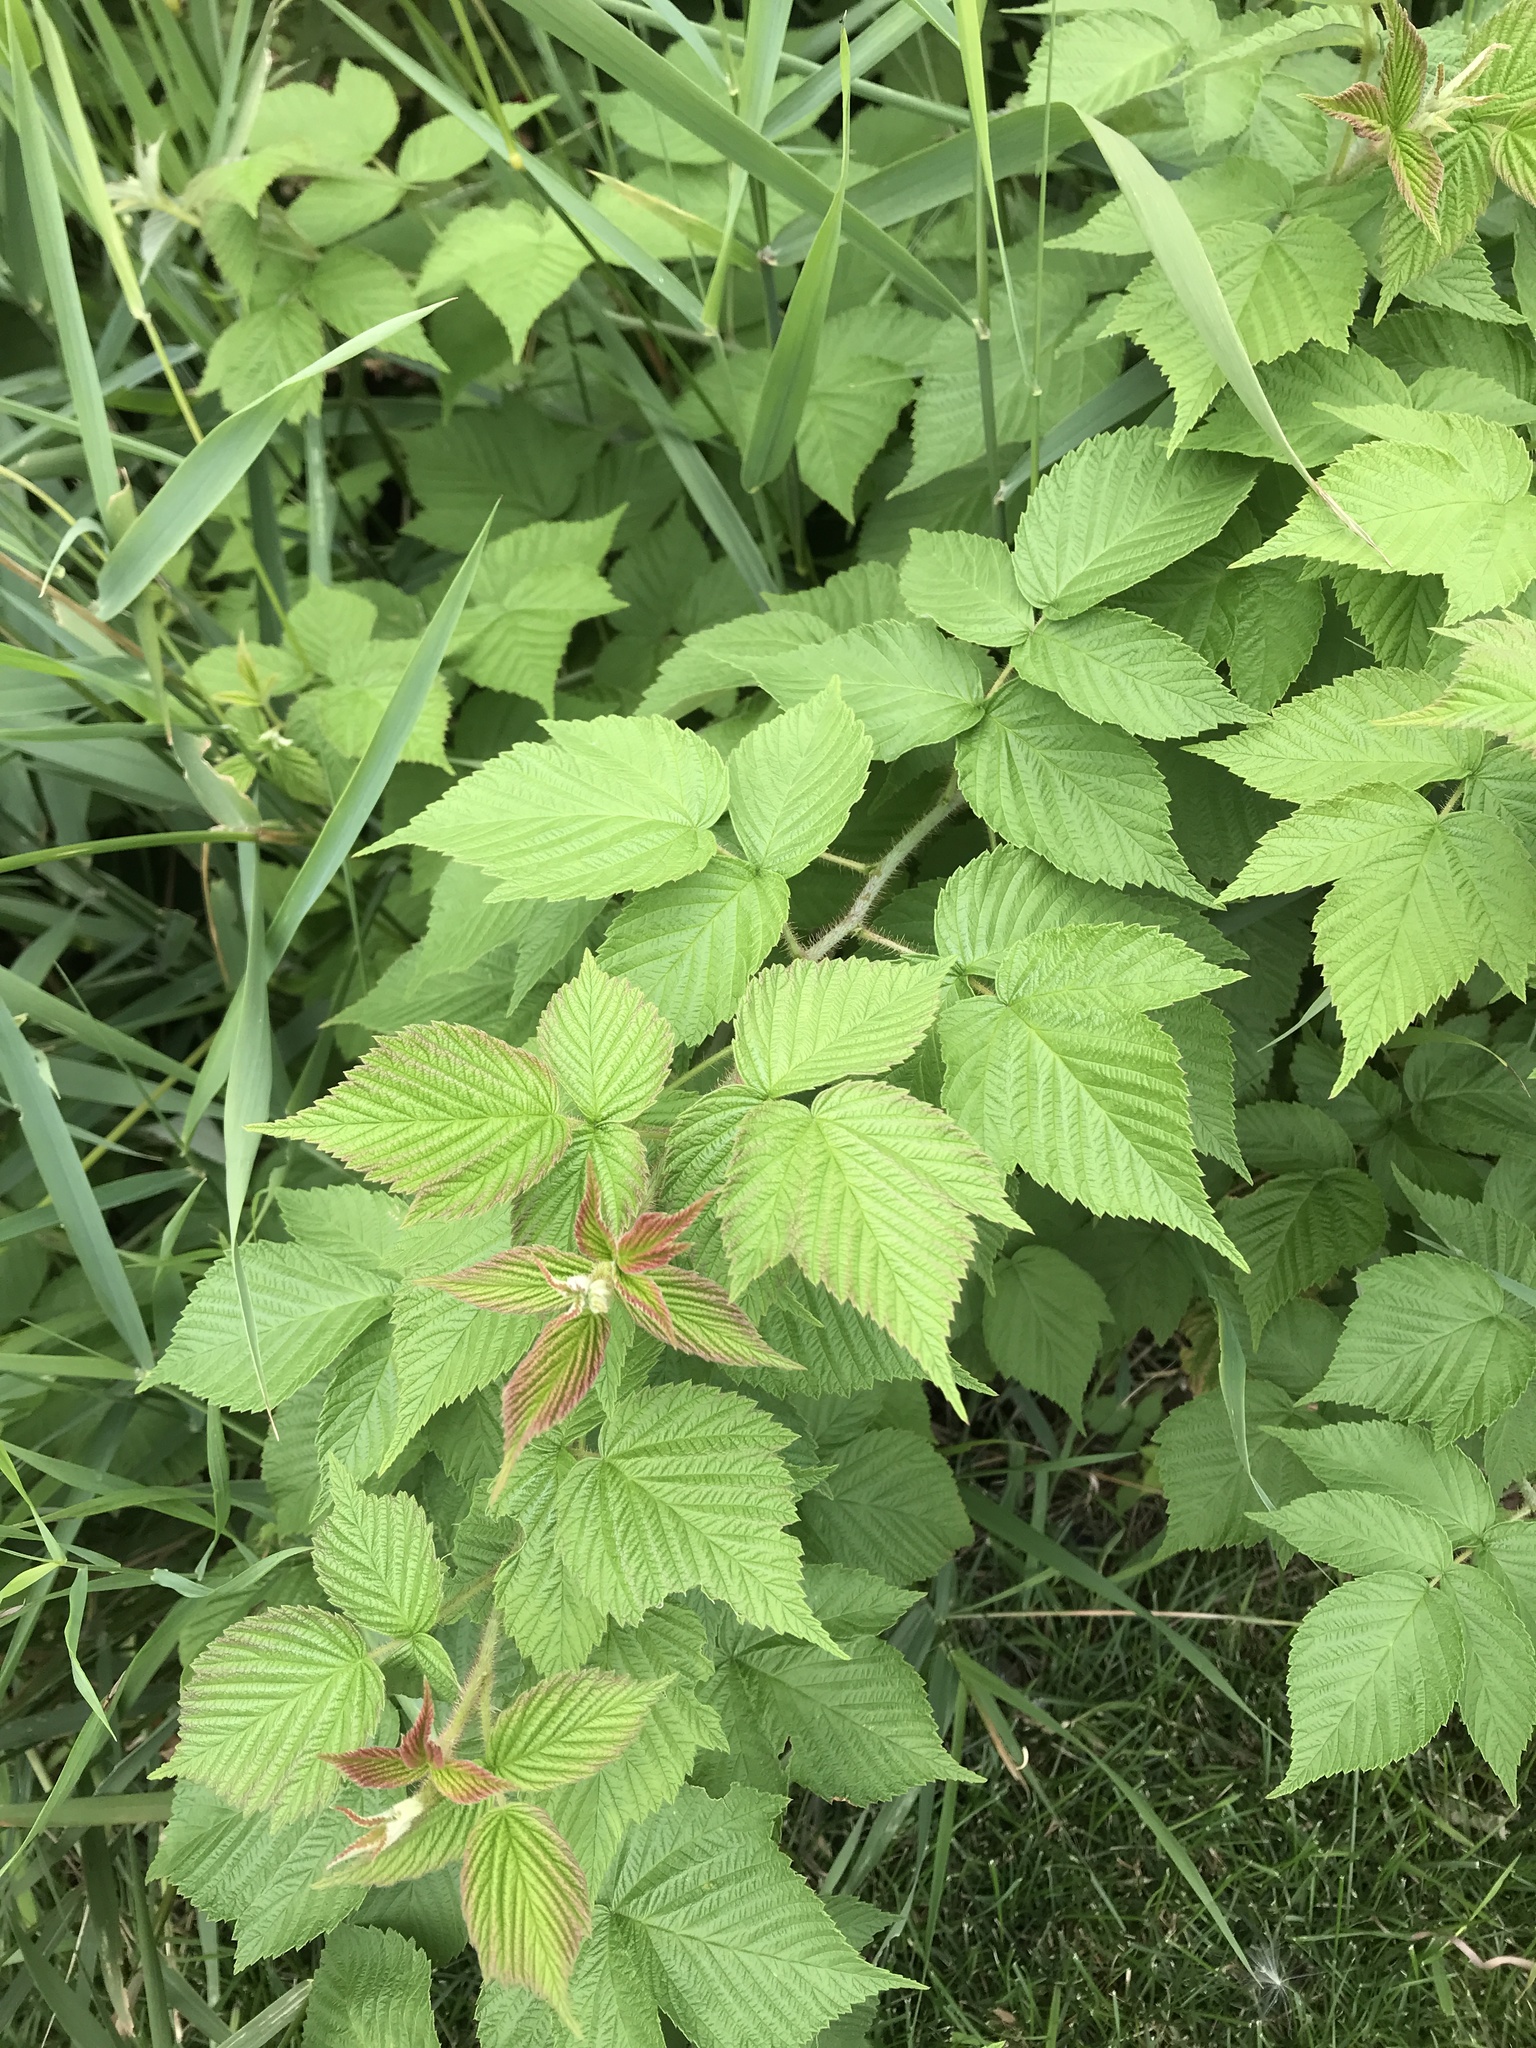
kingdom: Plantae
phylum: Tracheophyta
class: Magnoliopsida
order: Rosales
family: Rosaceae
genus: Rubus
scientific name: Rubus idaeus
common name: Raspberry
